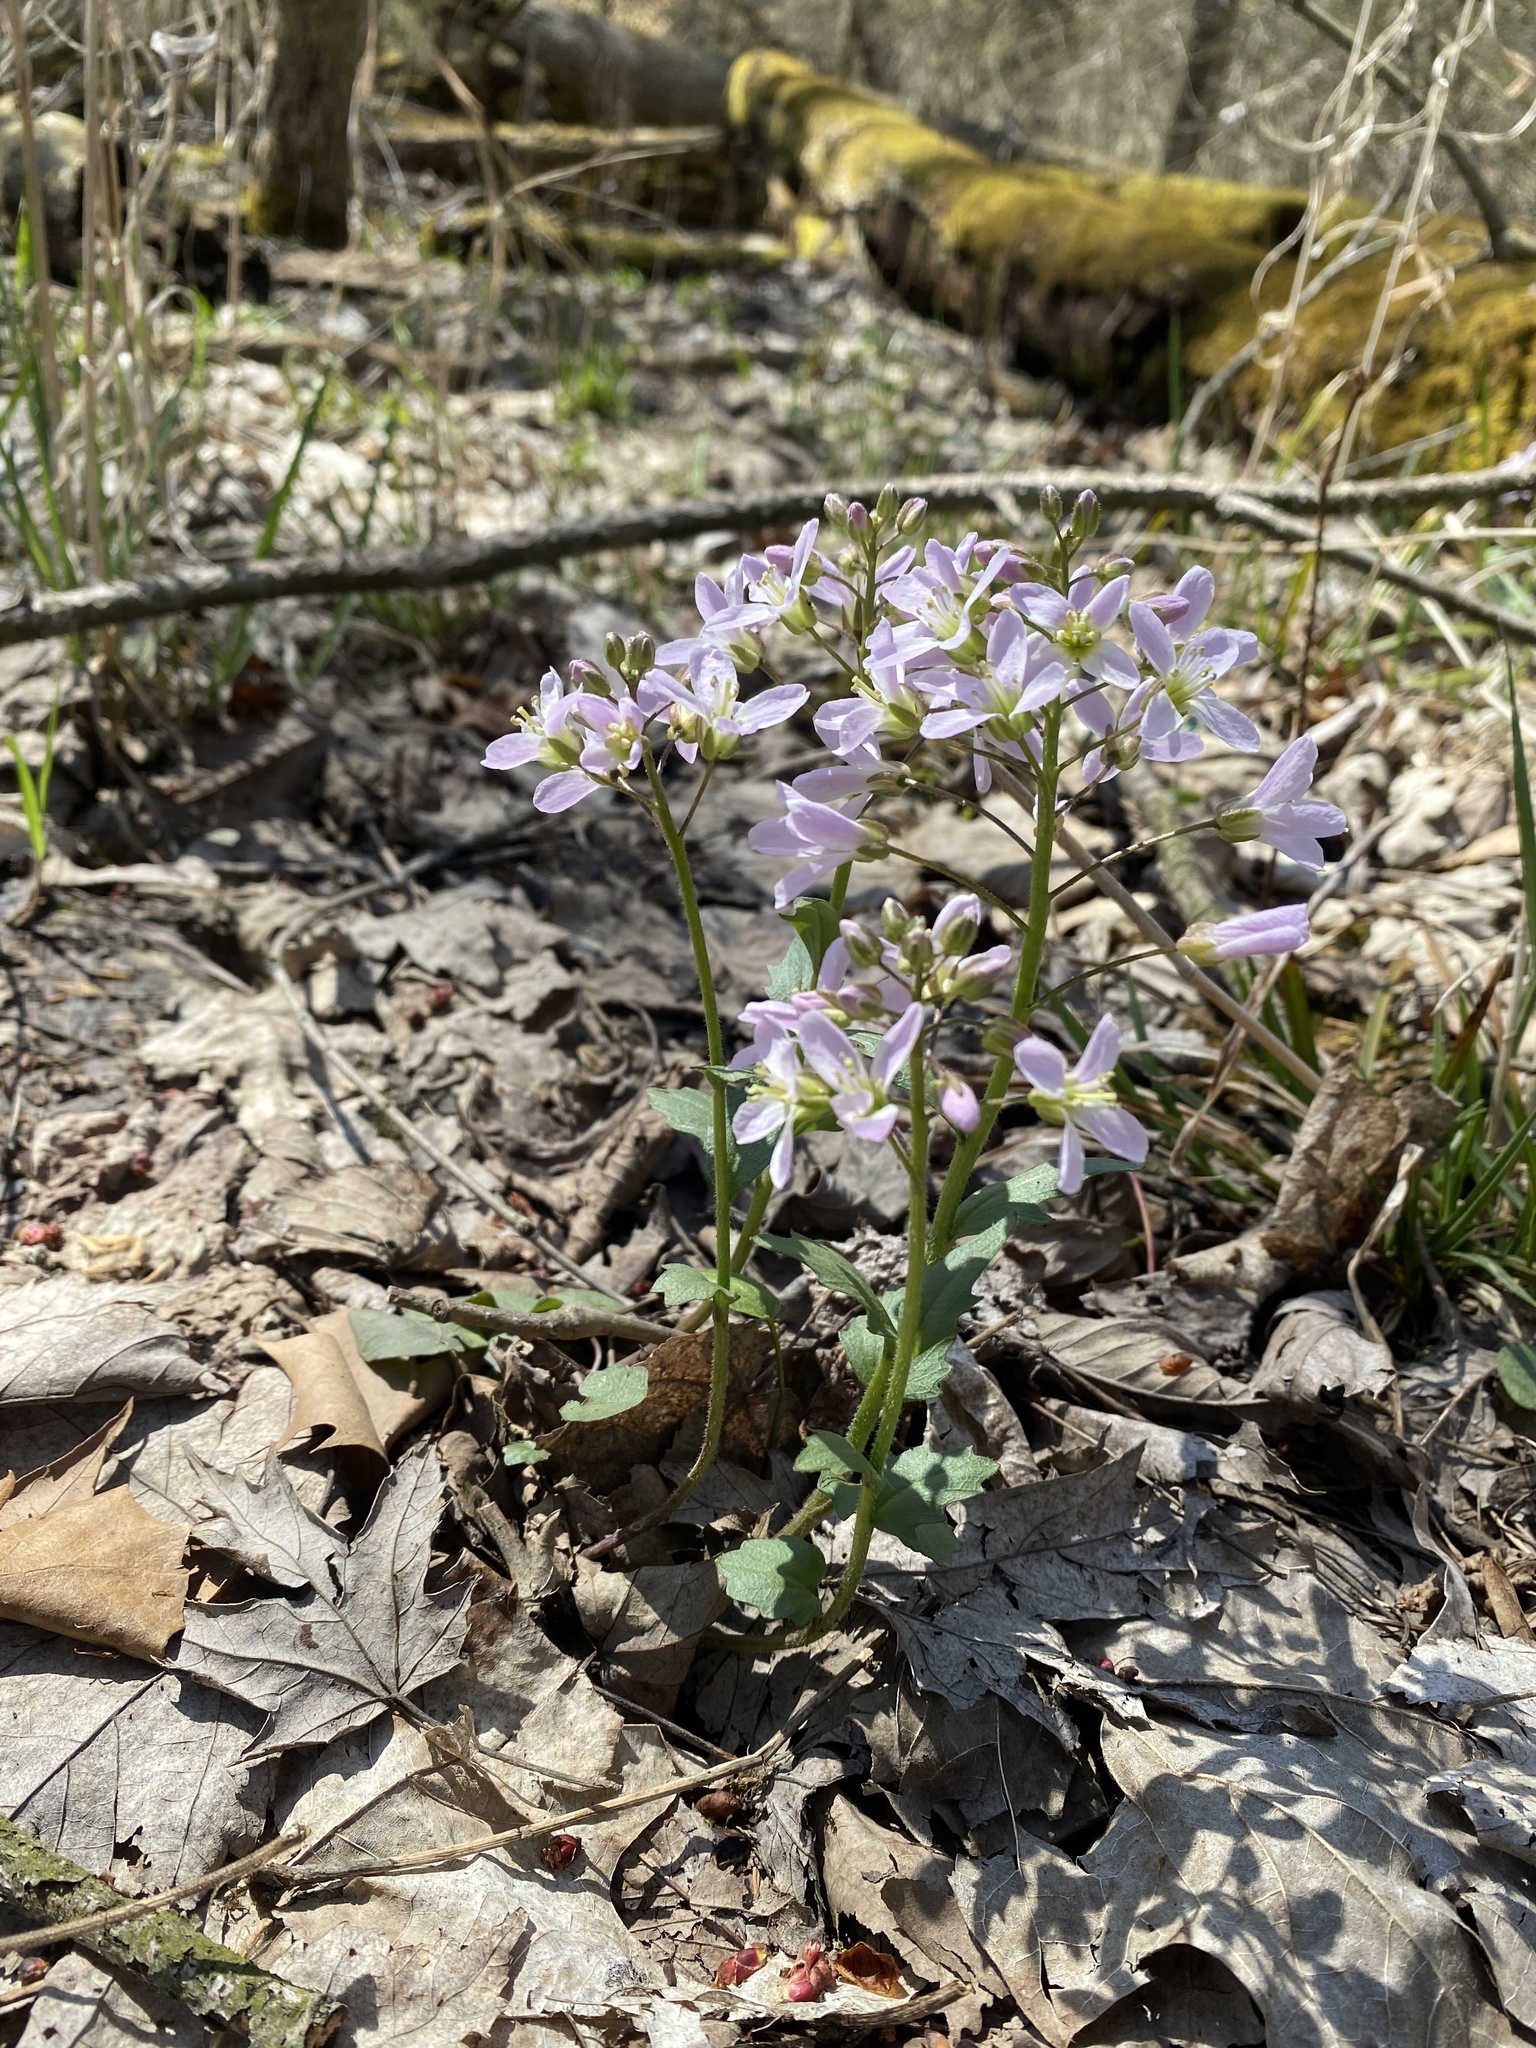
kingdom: Plantae
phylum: Tracheophyta
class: Magnoliopsida
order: Brassicales
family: Brassicaceae
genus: Cardamine
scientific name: Cardamine douglassii
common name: Purple cress
